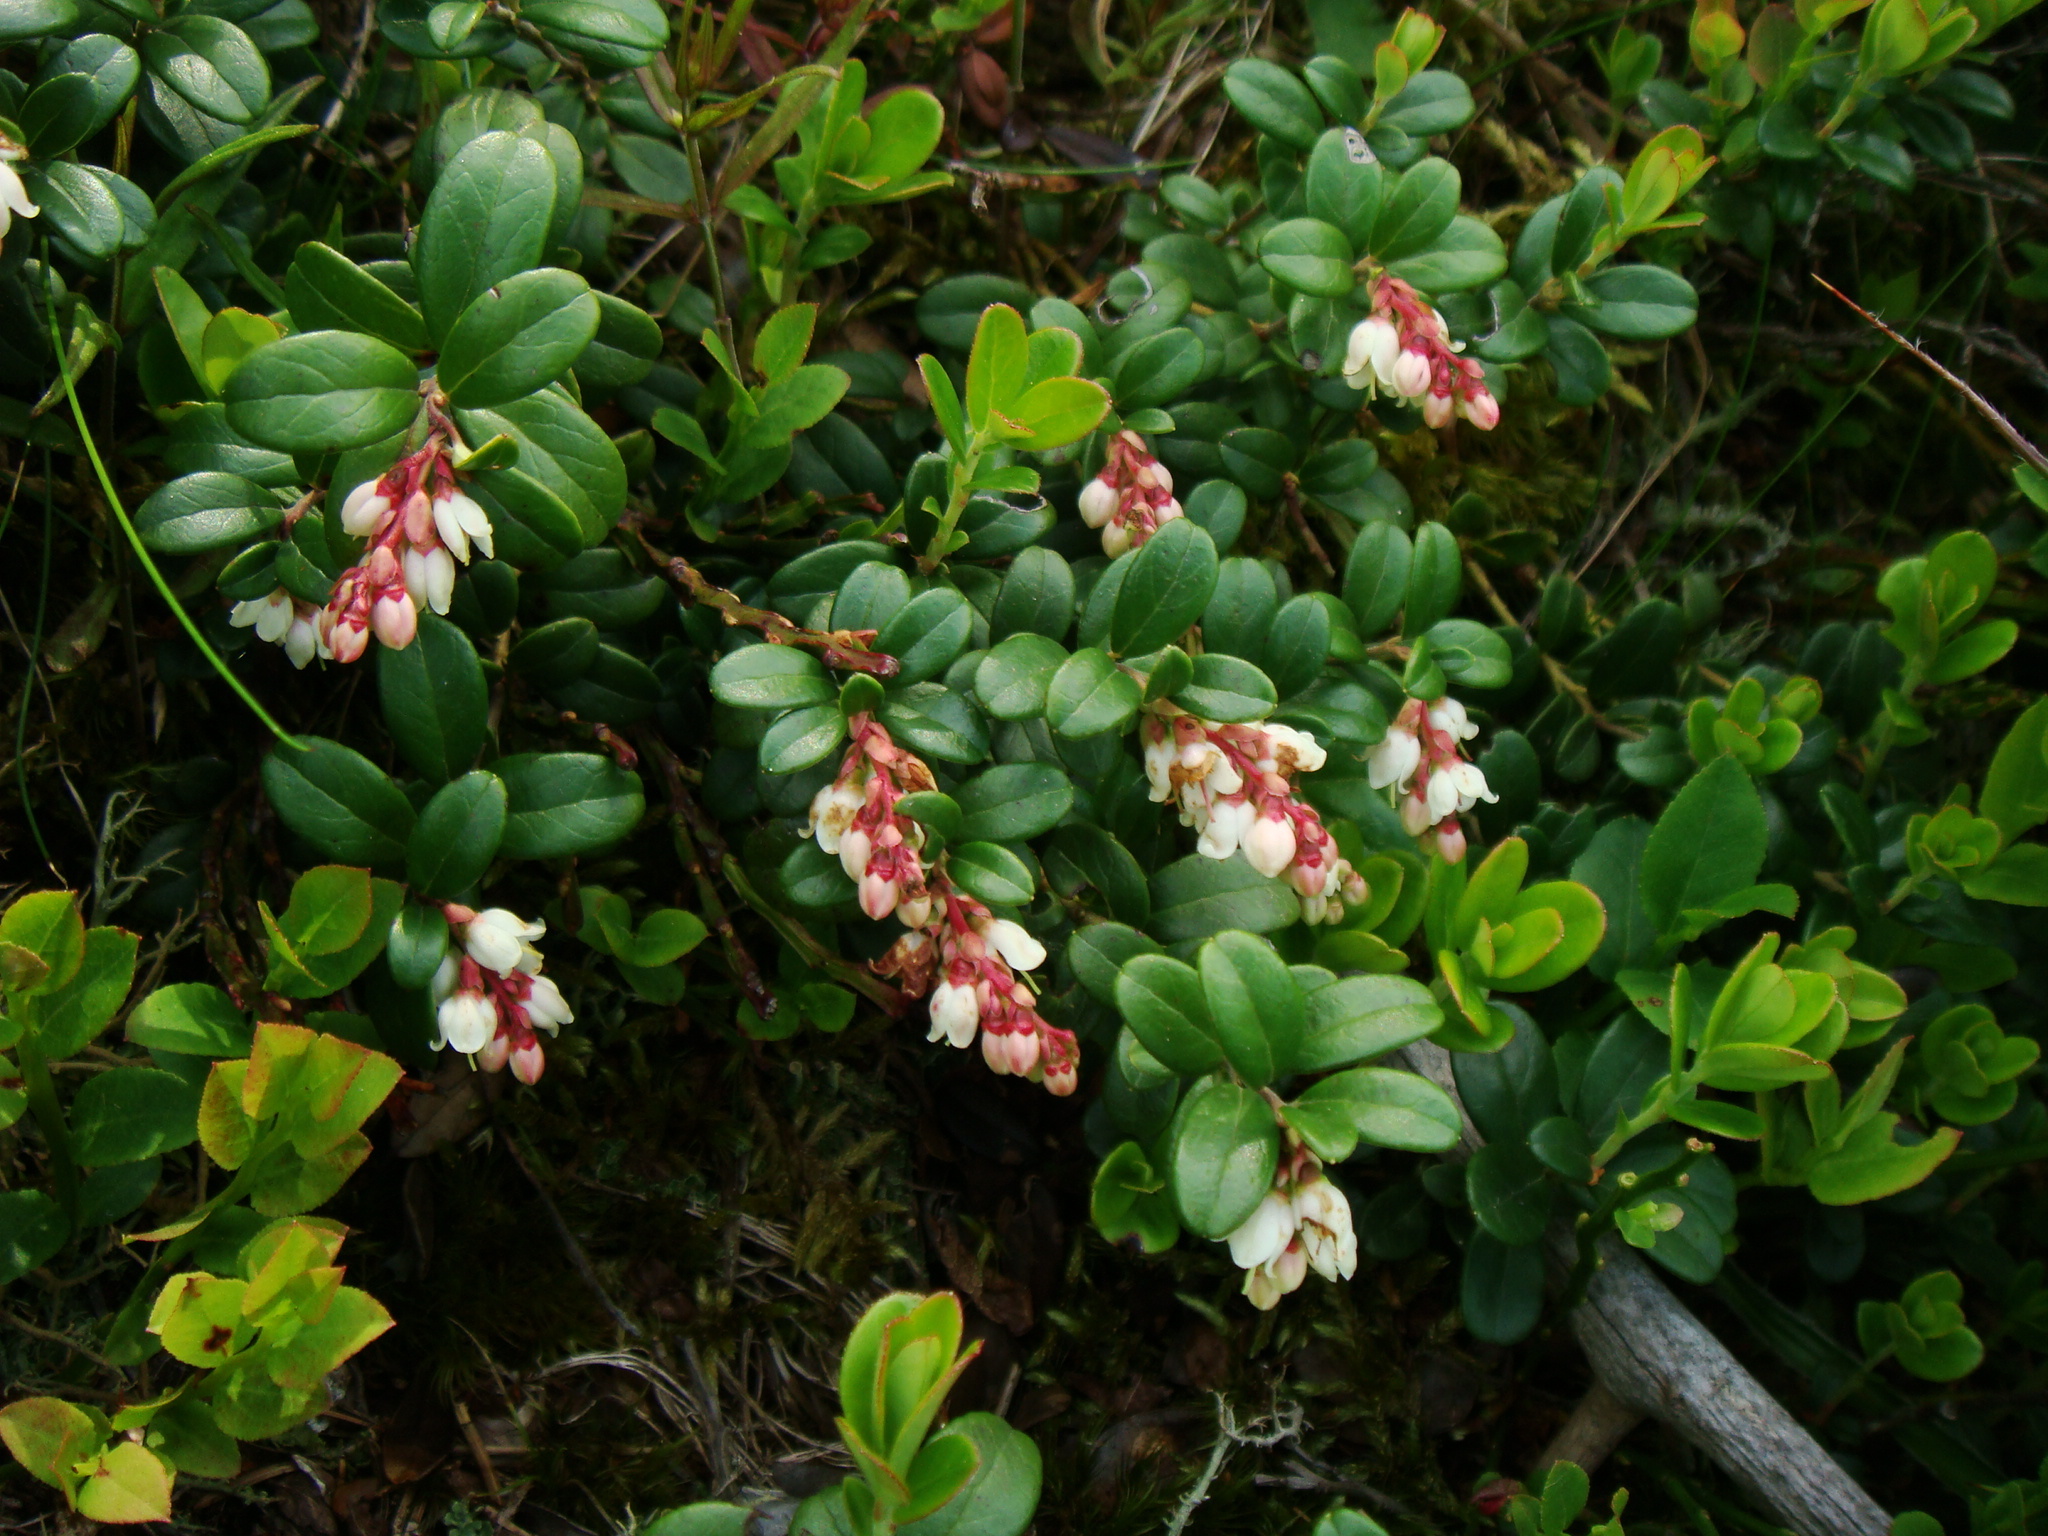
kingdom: Plantae
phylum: Tracheophyta
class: Magnoliopsida
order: Ericales
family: Ericaceae
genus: Vaccinium
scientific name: Vaccinium vitis-idaea
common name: Cowberry
